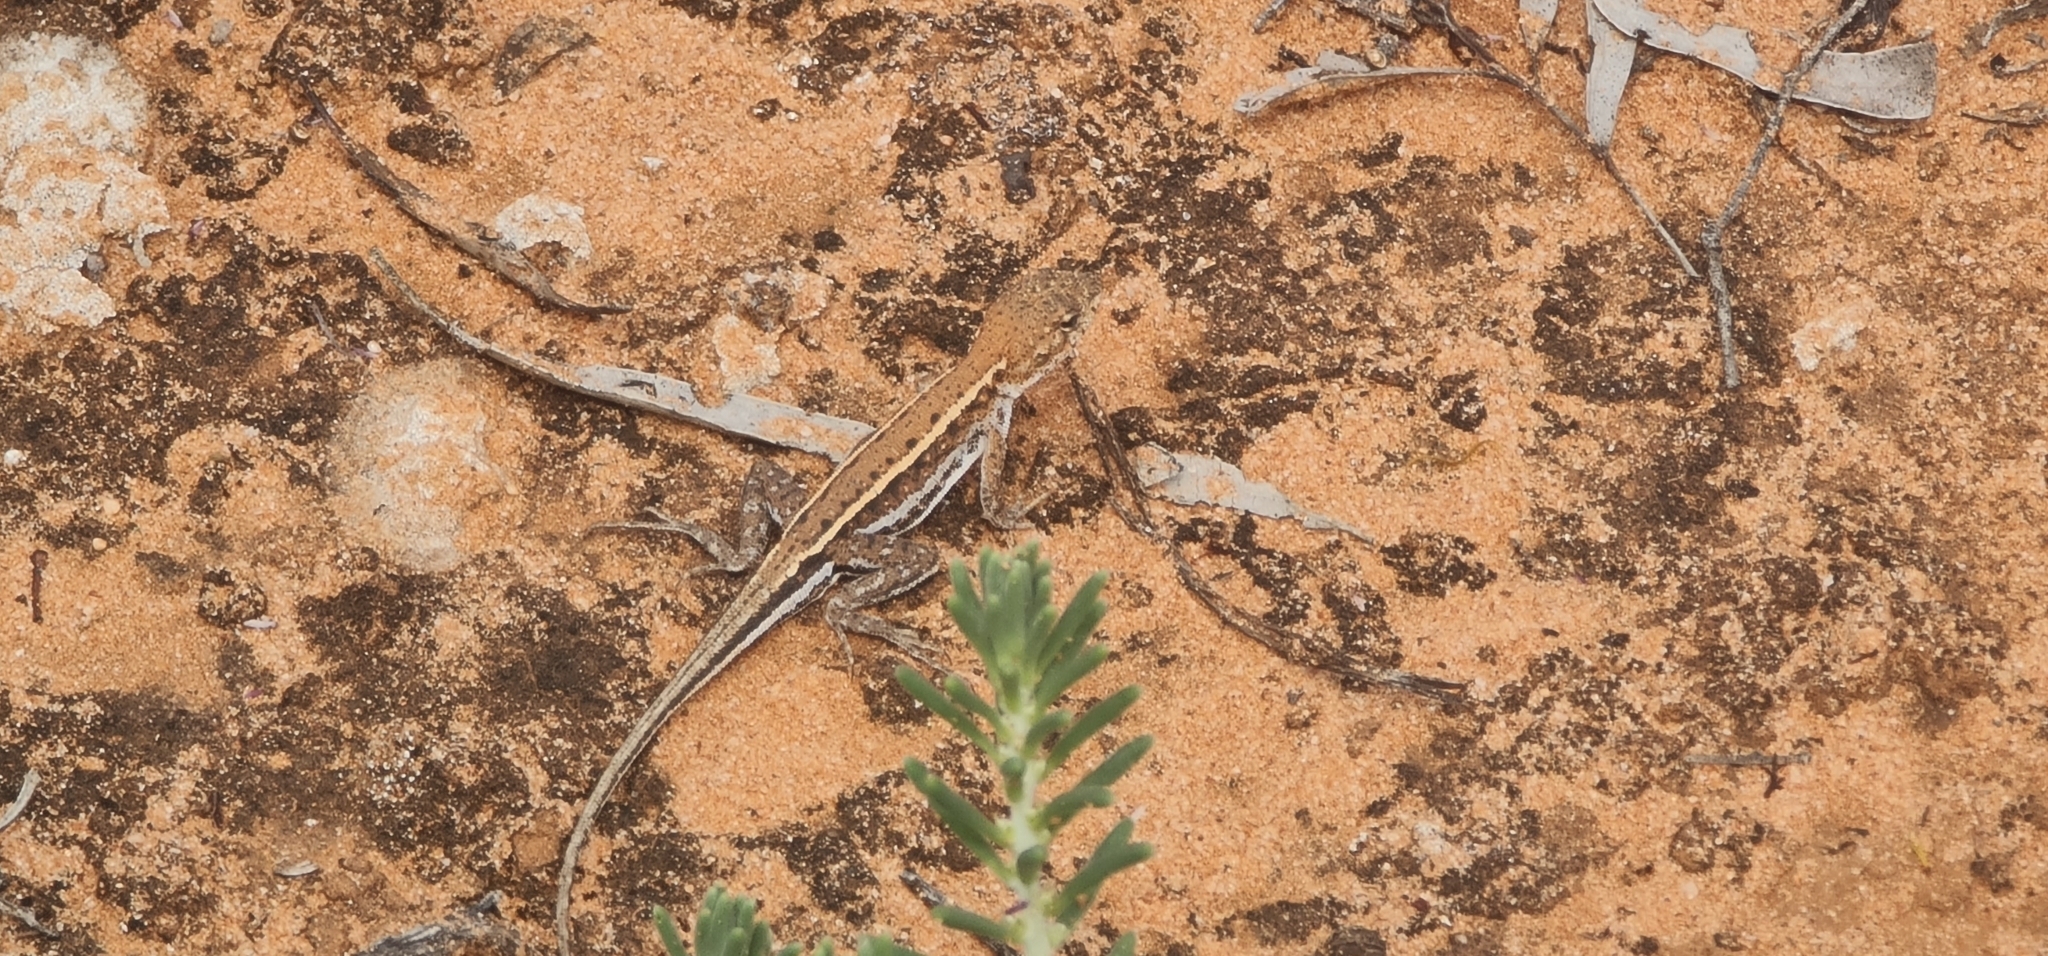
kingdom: Animalia
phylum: Chordata
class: Squamata
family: Agamidae
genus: Ctenophorus
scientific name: Ctenophorus spinodomus
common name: Eastern mallee dragon
